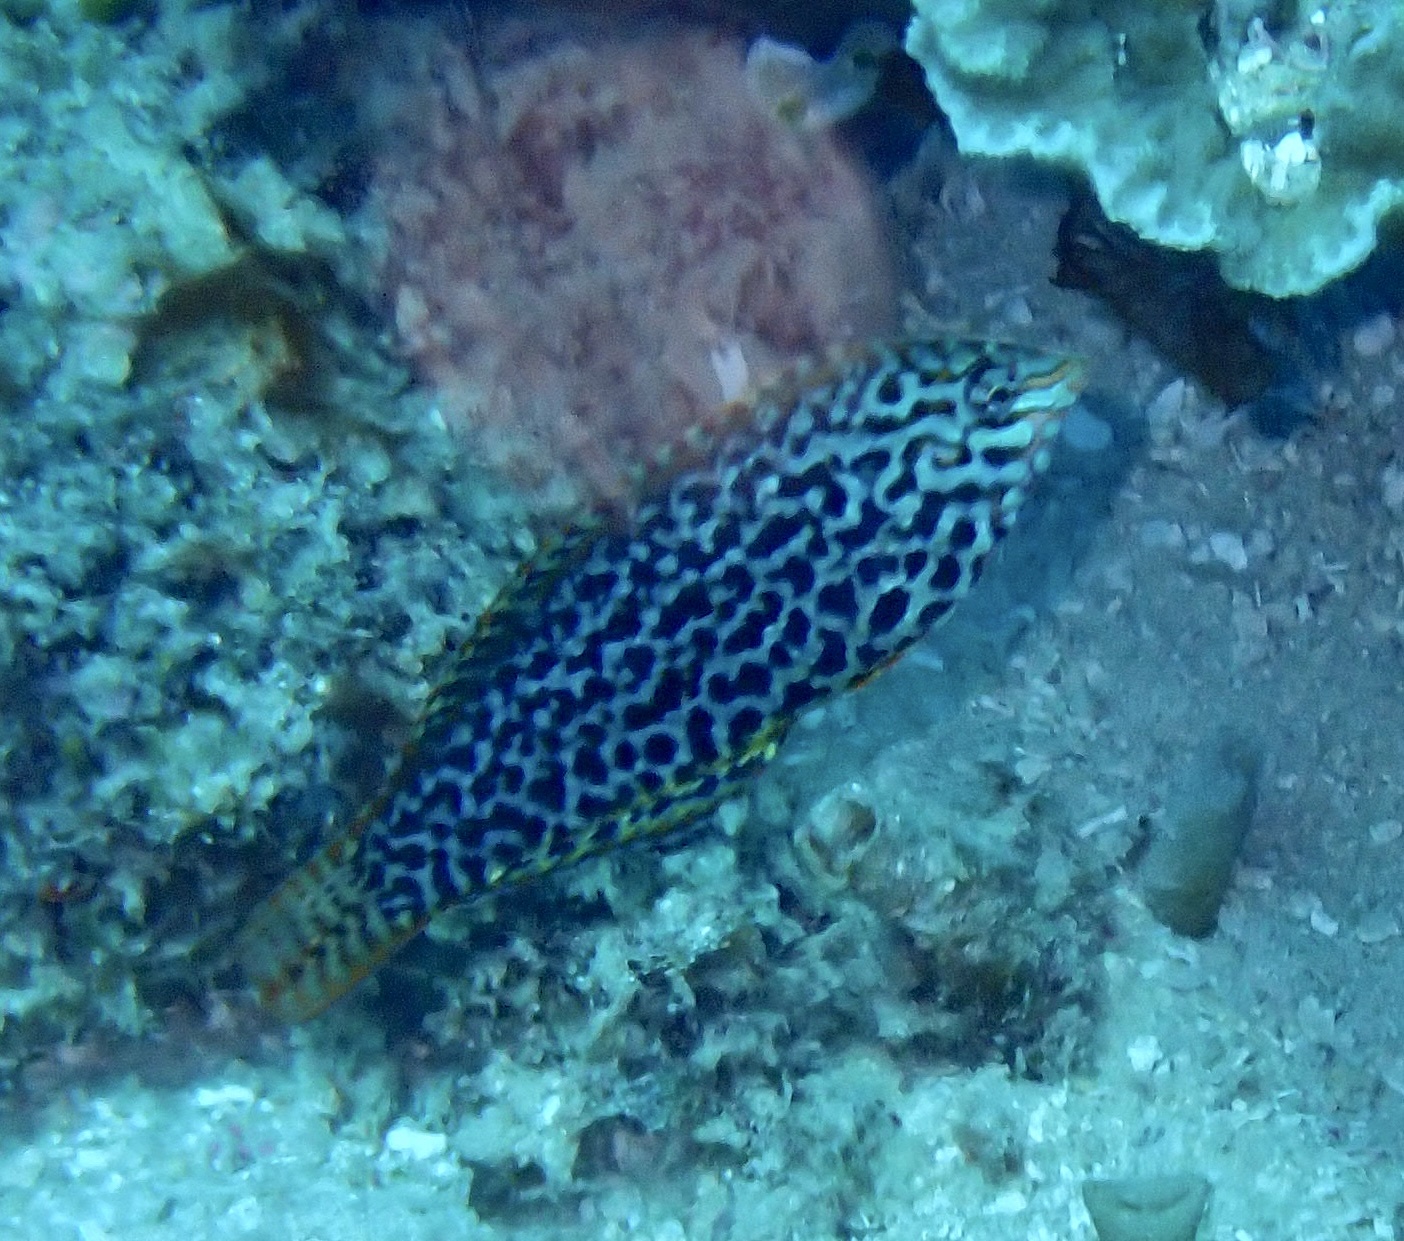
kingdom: Animalia
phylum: Chordata
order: Perciformes
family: Labridae
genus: Macropharyngodon
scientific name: Macropharyngodon meleagris
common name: Leopard wrasse
